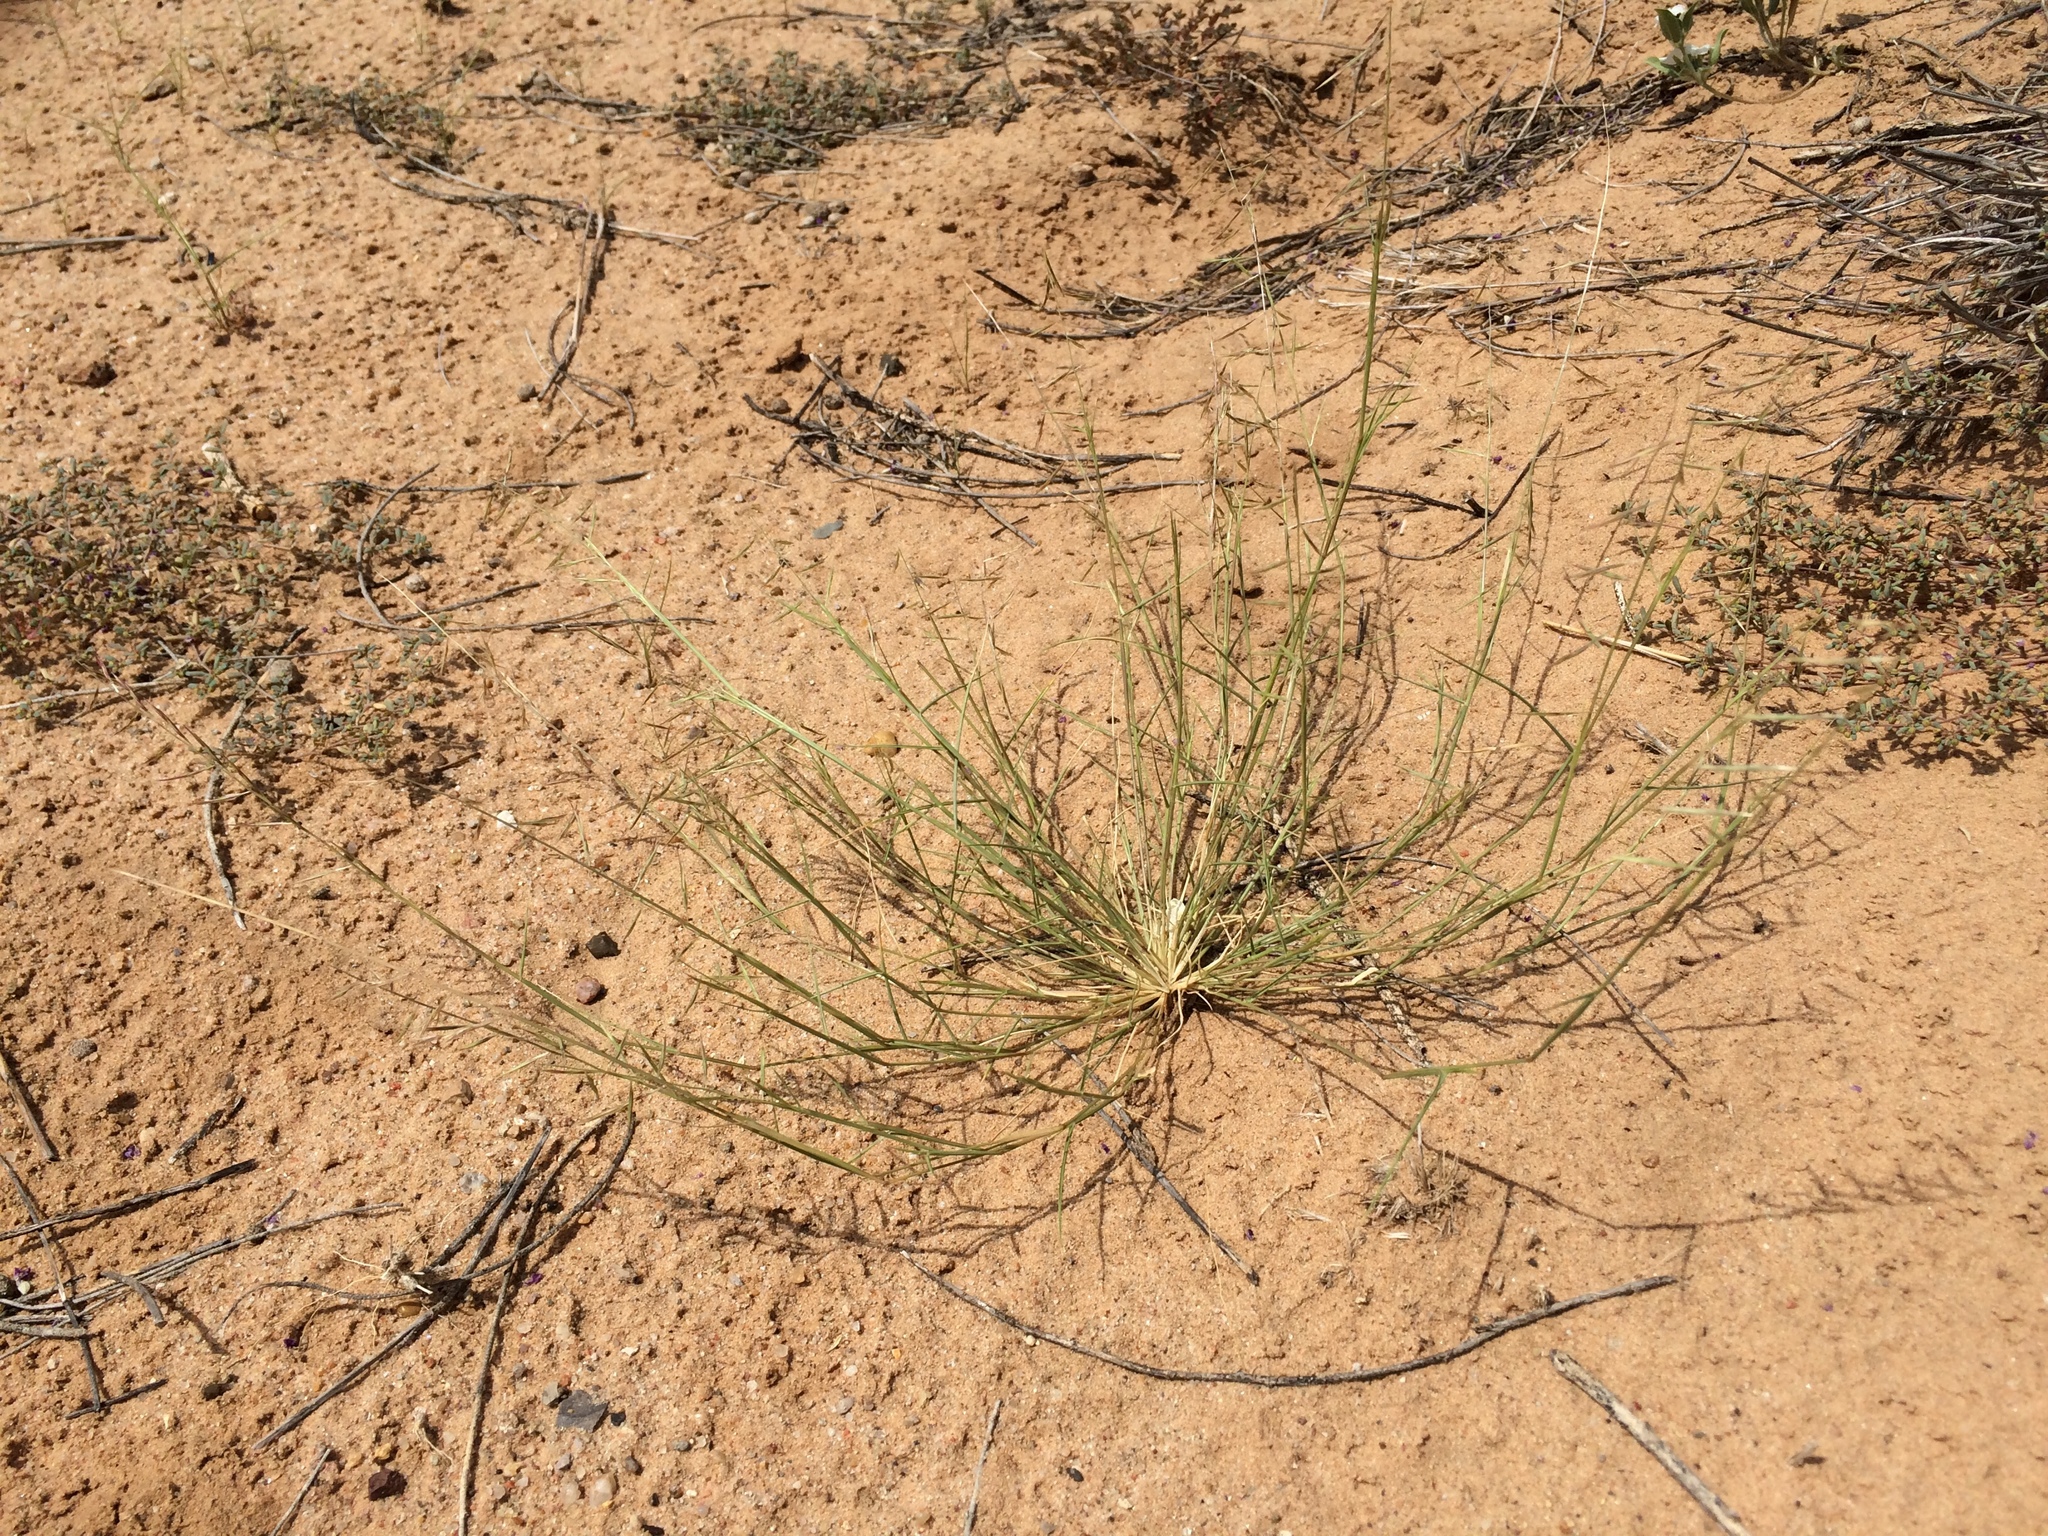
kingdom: Plantae
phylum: Tracheophyta
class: Liliopsida
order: Poales
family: Poaceae
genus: Bouteloua
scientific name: Bouteloua aristidoides
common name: Needle grama
